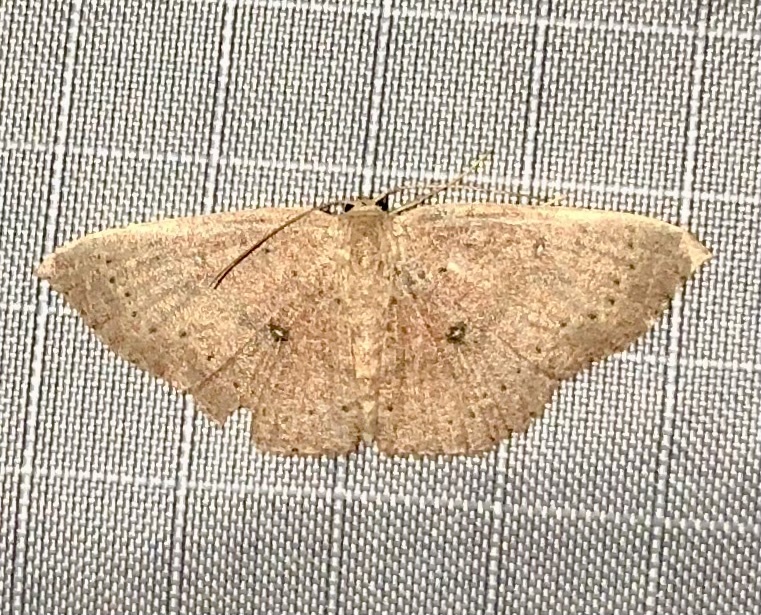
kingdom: Animalia
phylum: Arthropoda
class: Insecta
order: Lepidoptera
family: Geometridae
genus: Cyclophora
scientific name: Cyclophora packardi
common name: Packard's wave
